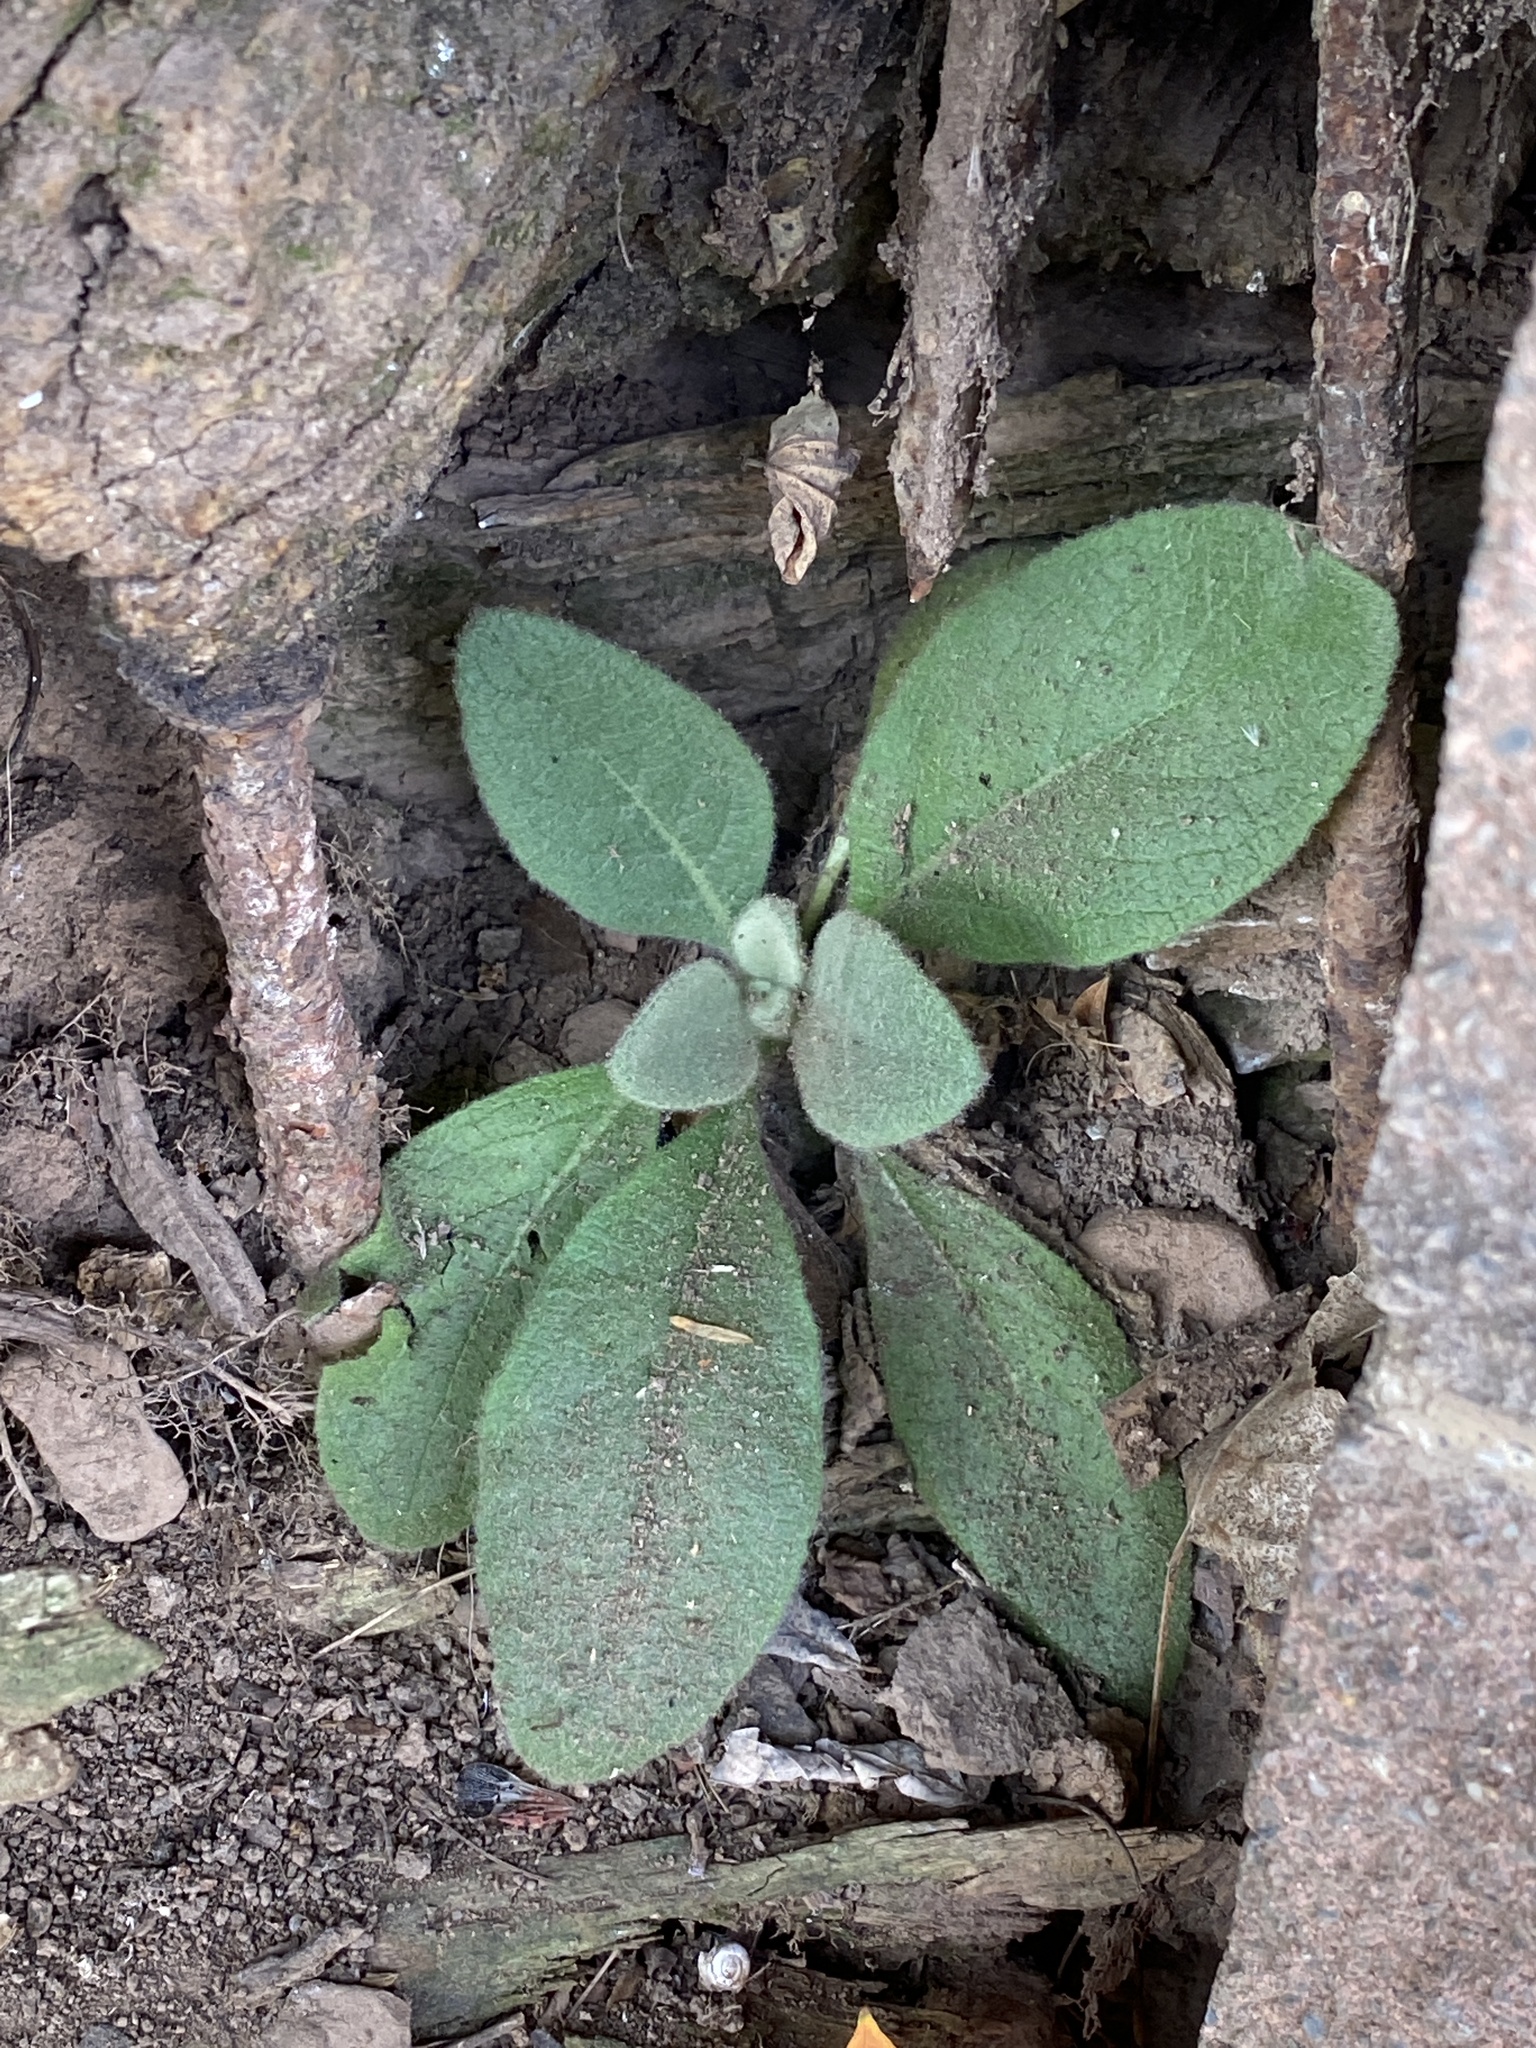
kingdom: Plantae
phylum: Tracheophyta
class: Magnoliopsida
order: Lamiales
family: Scrophulariaceae
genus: Verbascum
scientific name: Verbascum thapsus
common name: Common mullein
